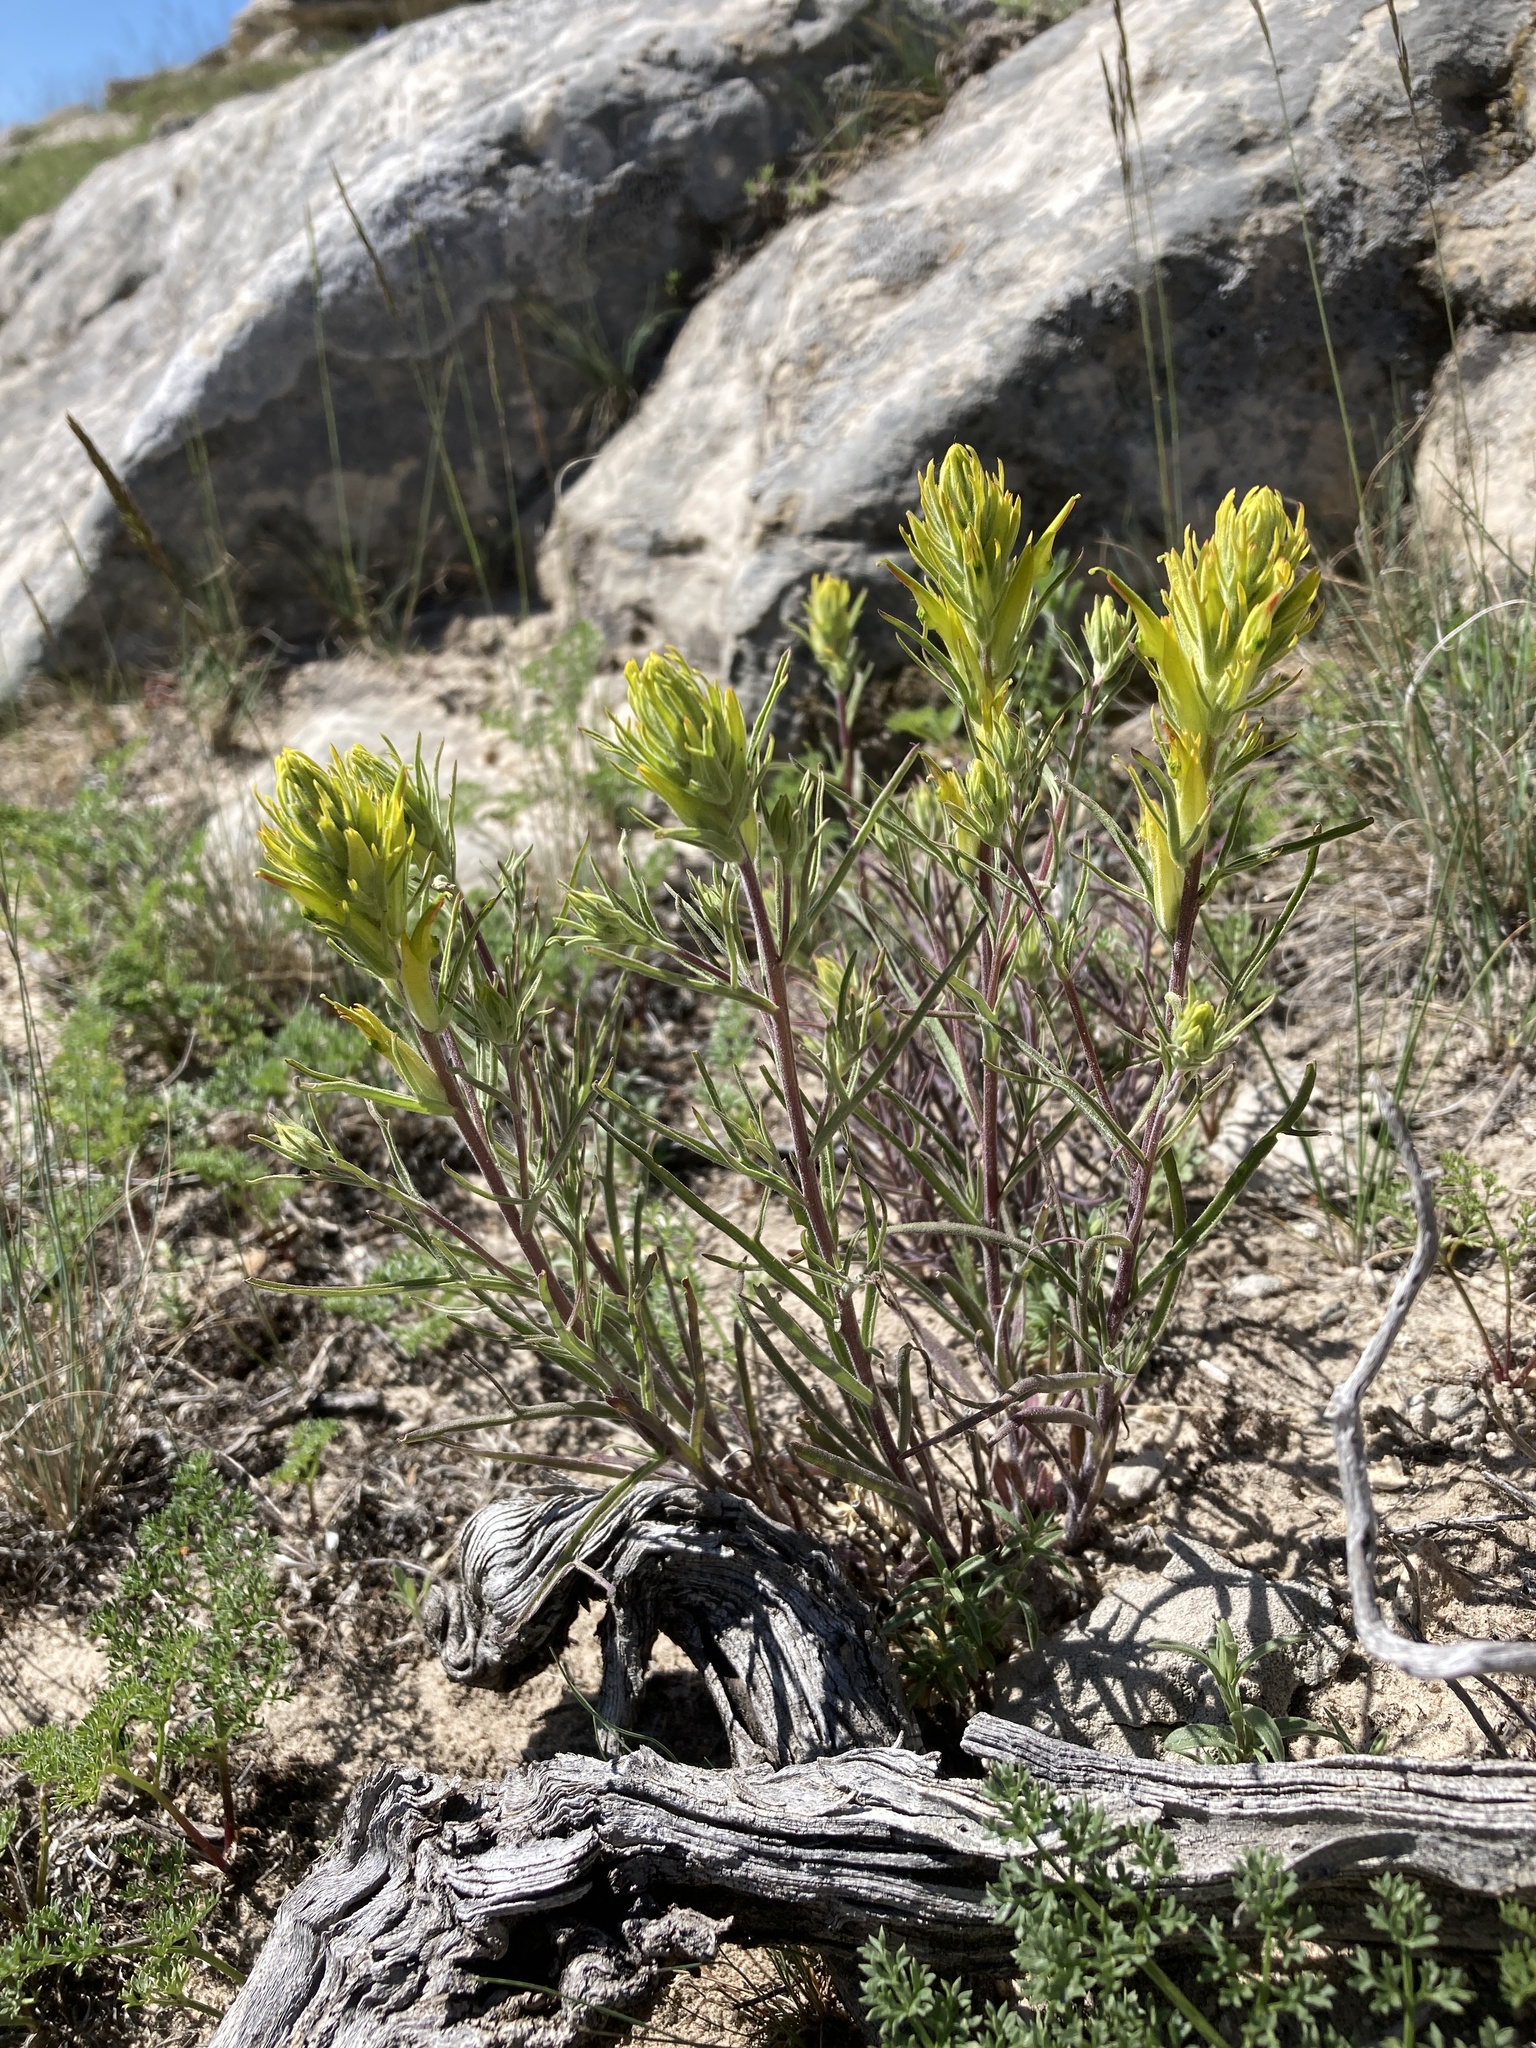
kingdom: Plantae
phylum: Tracheophyta
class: Magnoliopsida
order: Lamiales
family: Orobanchaceae
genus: Castilleja
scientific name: Castilleja flava
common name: Yellow paintbrush
